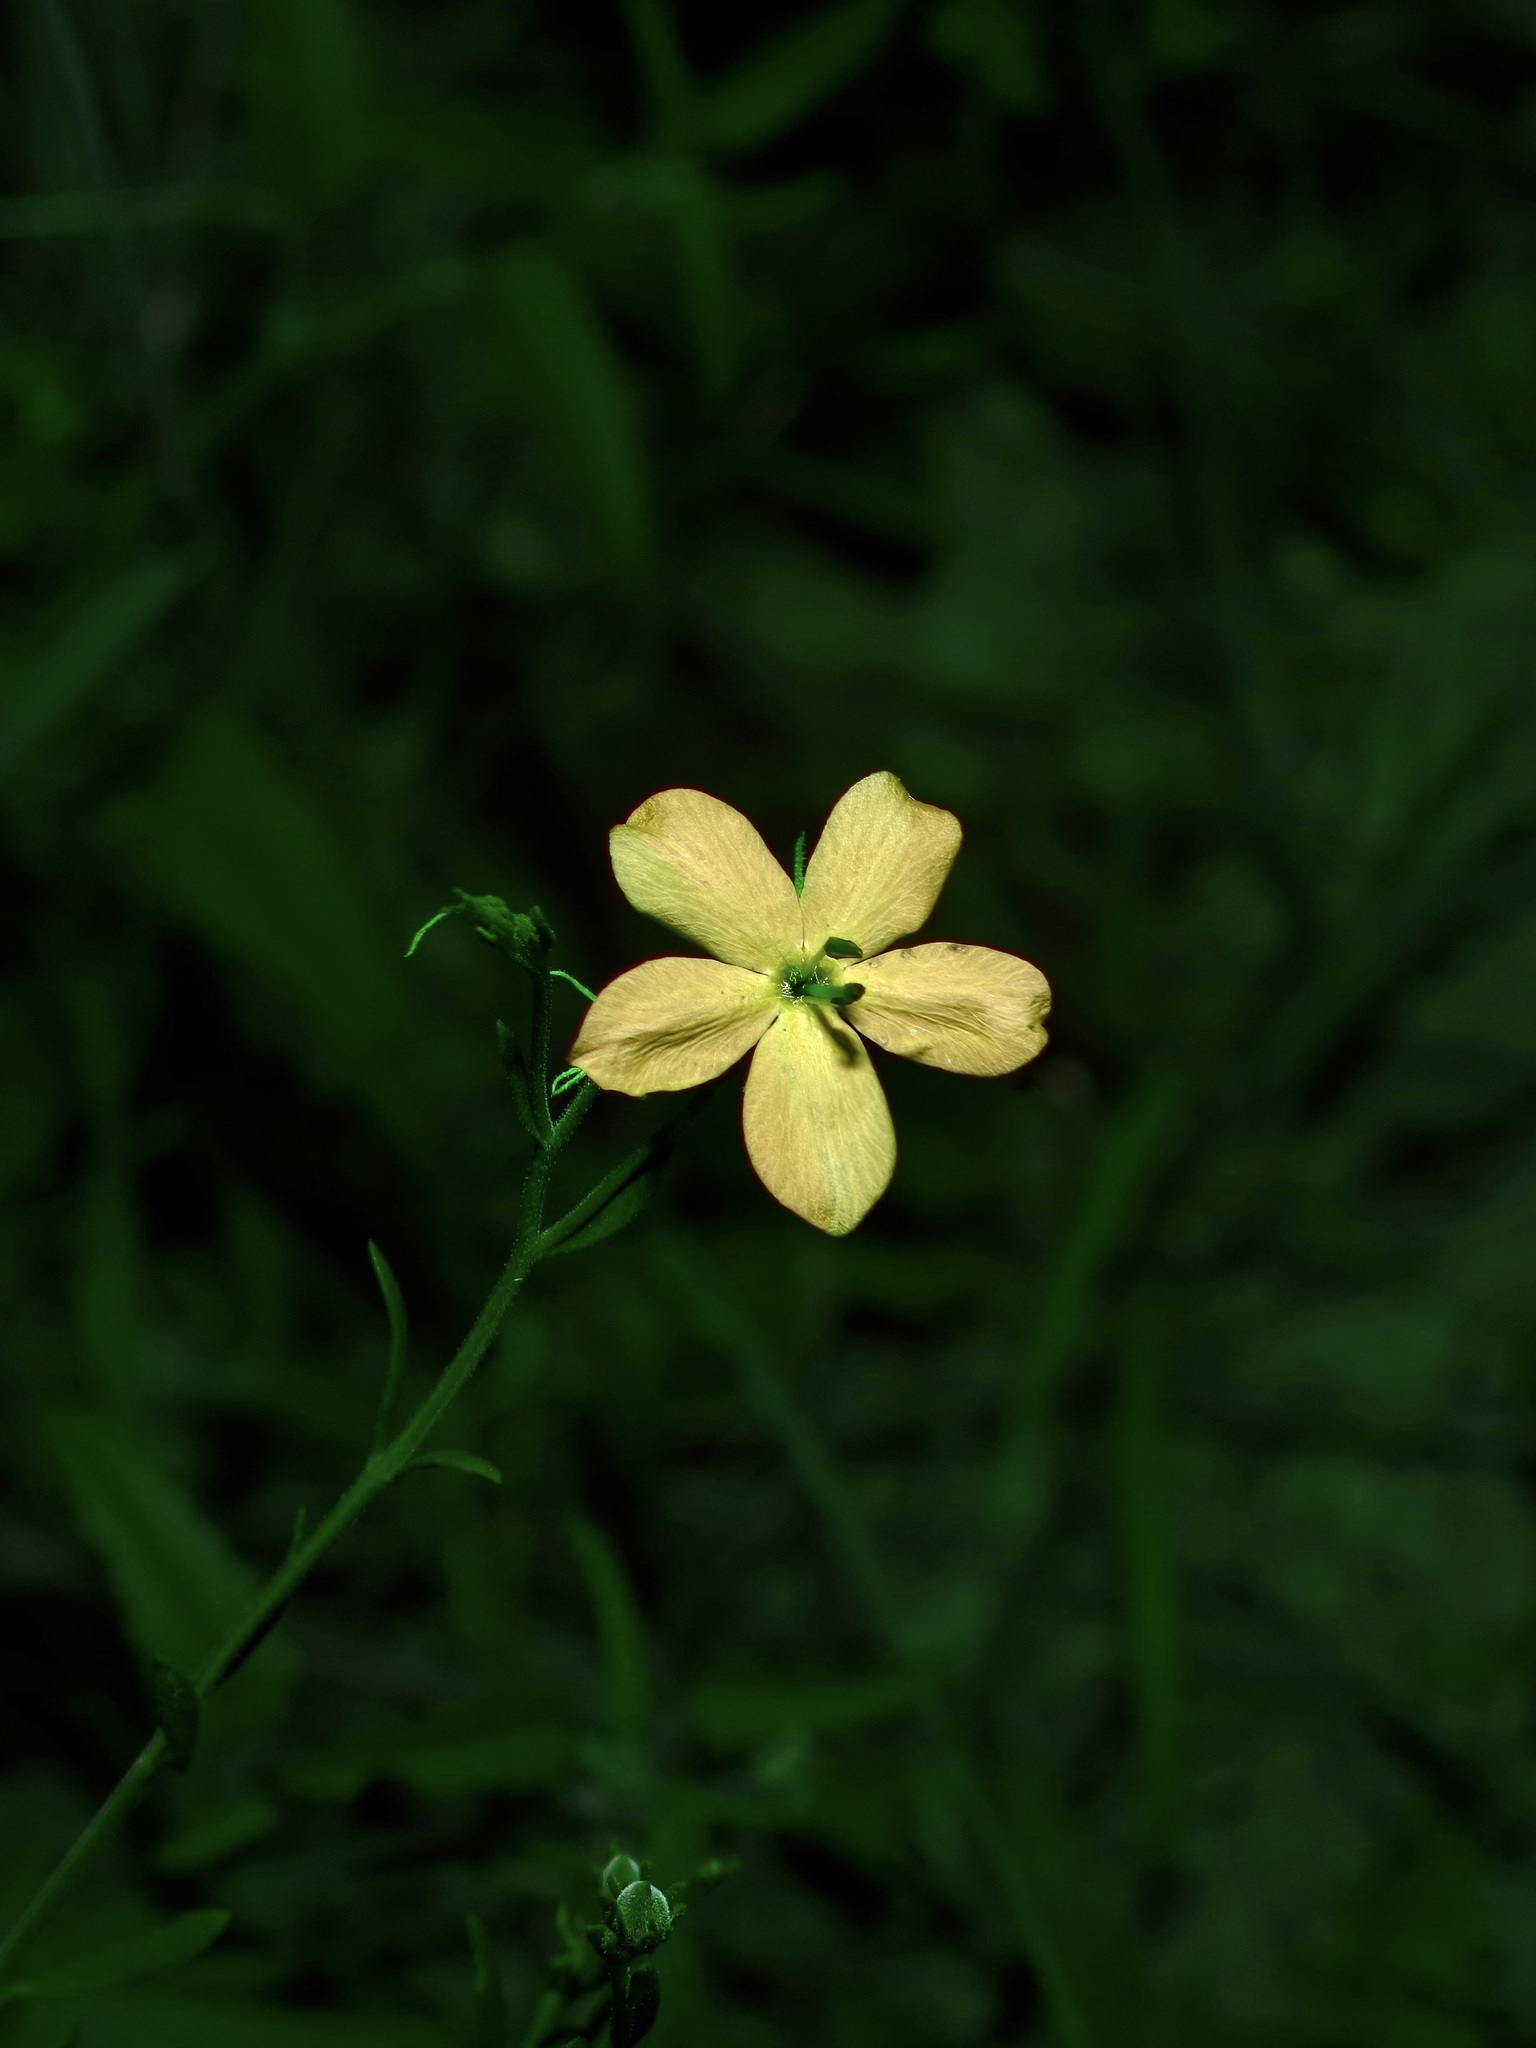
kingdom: Plantae
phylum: Tracheophyta
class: Magnoliopsida
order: Lamiales
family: Oleaceae
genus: Menodora
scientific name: Menodora scabra
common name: Rough menodora
